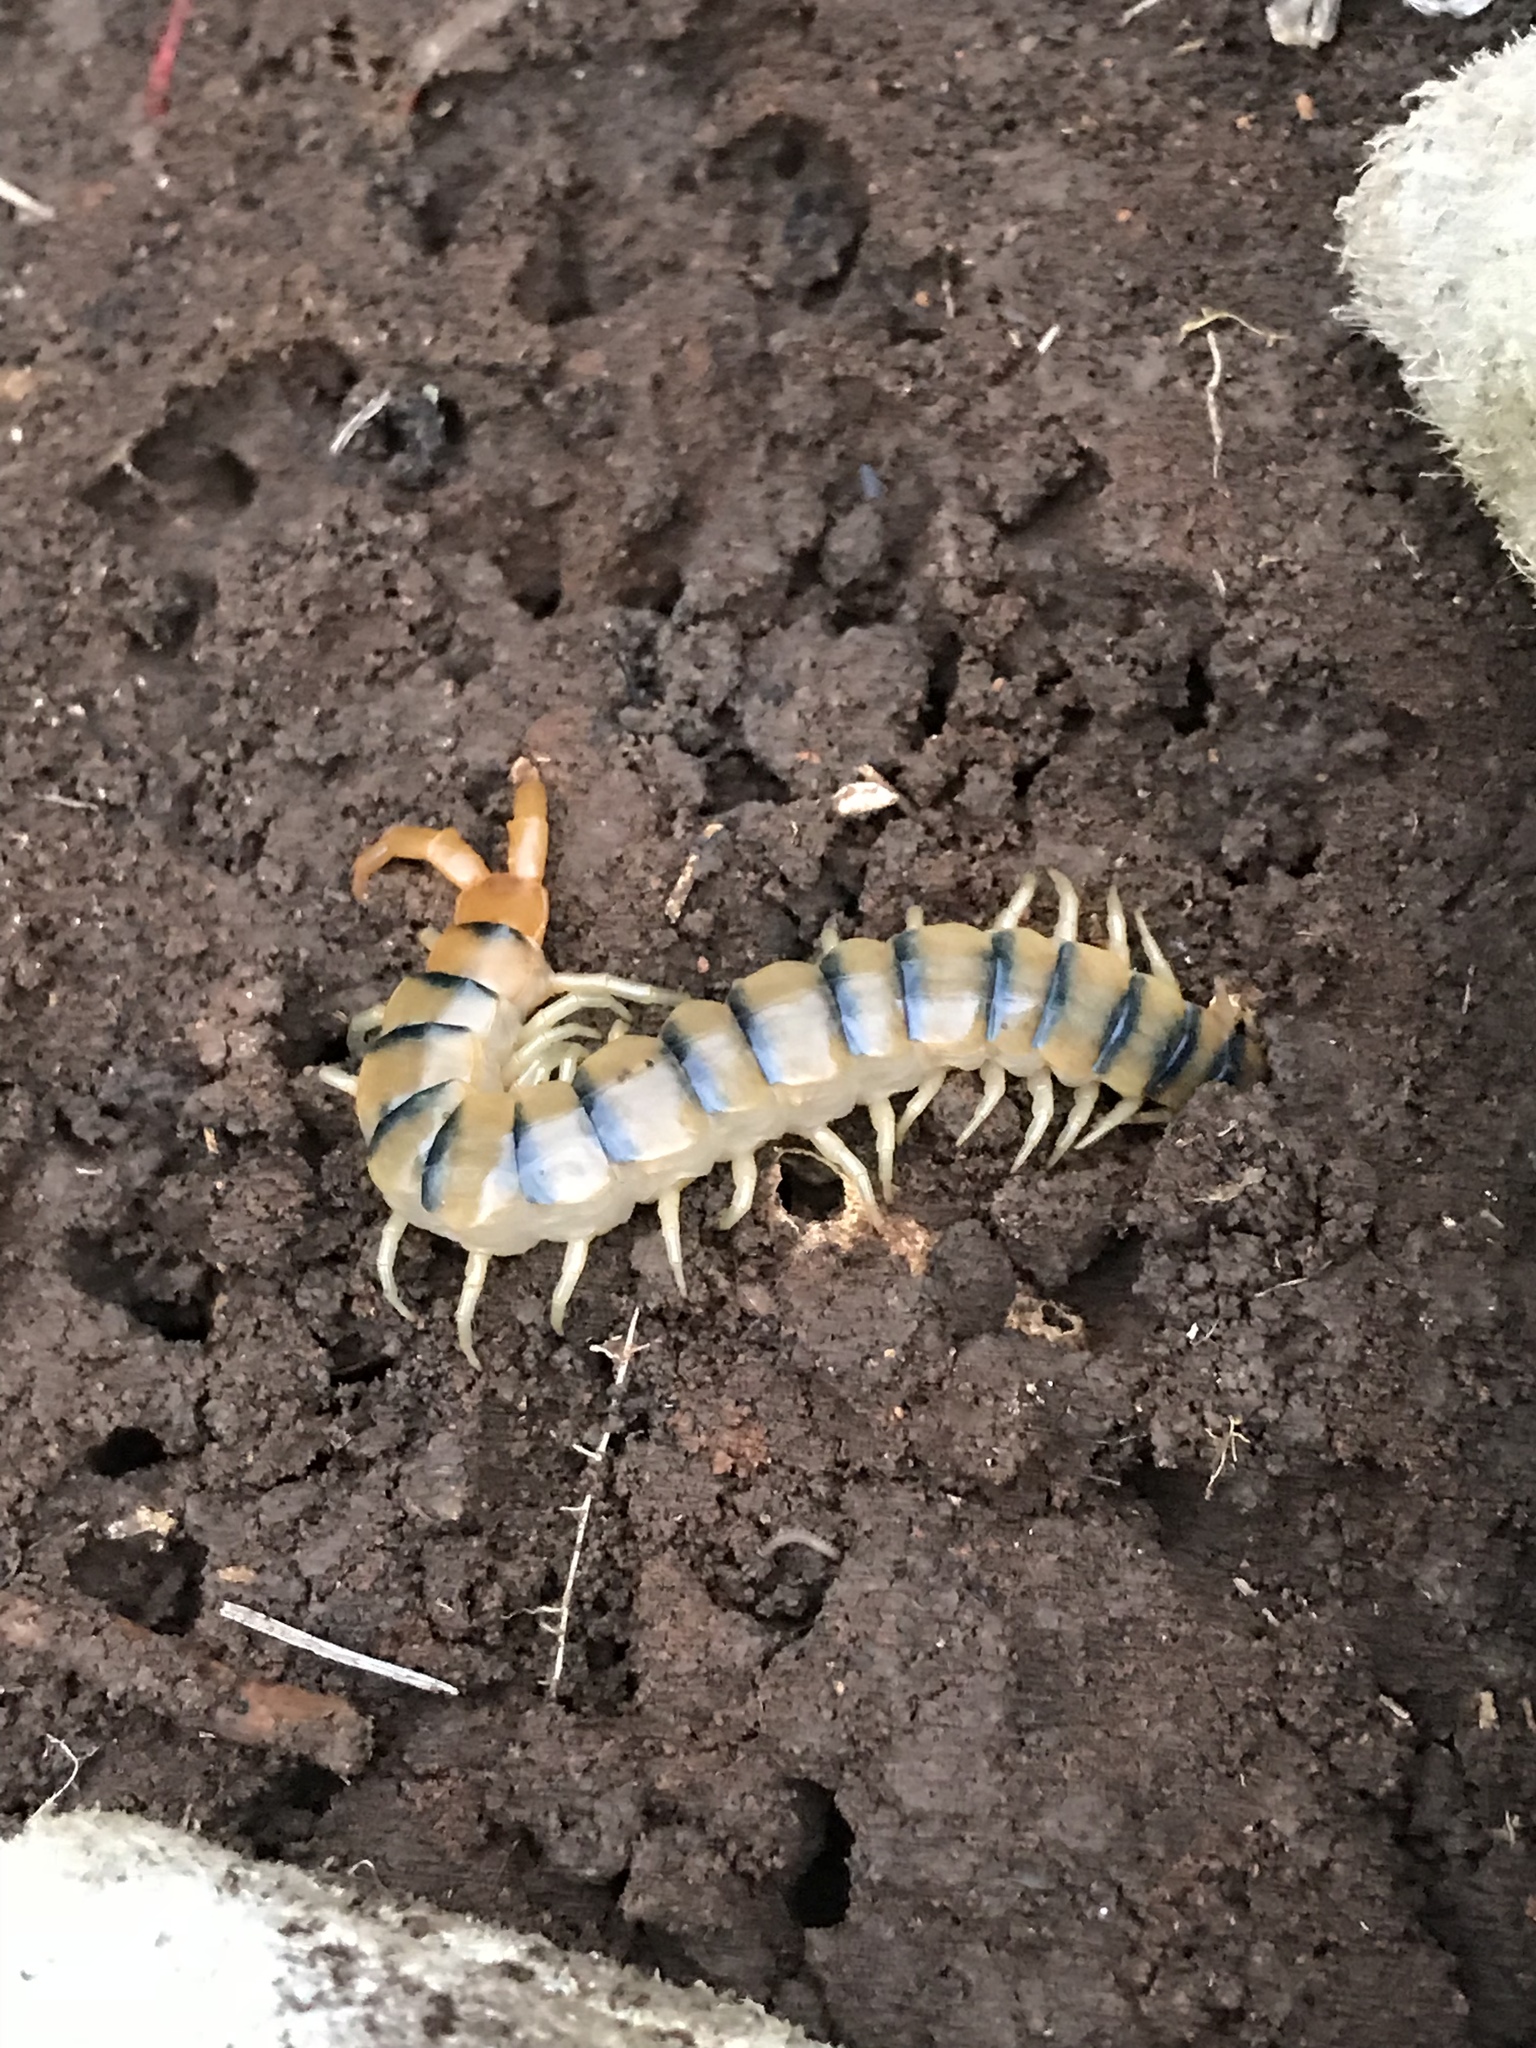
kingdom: Animalia
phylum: Arthropoda
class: Chilopoda
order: Scolopendromorpha
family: Scolopendridae
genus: Scolopendra
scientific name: Scolopendra polymorpha
